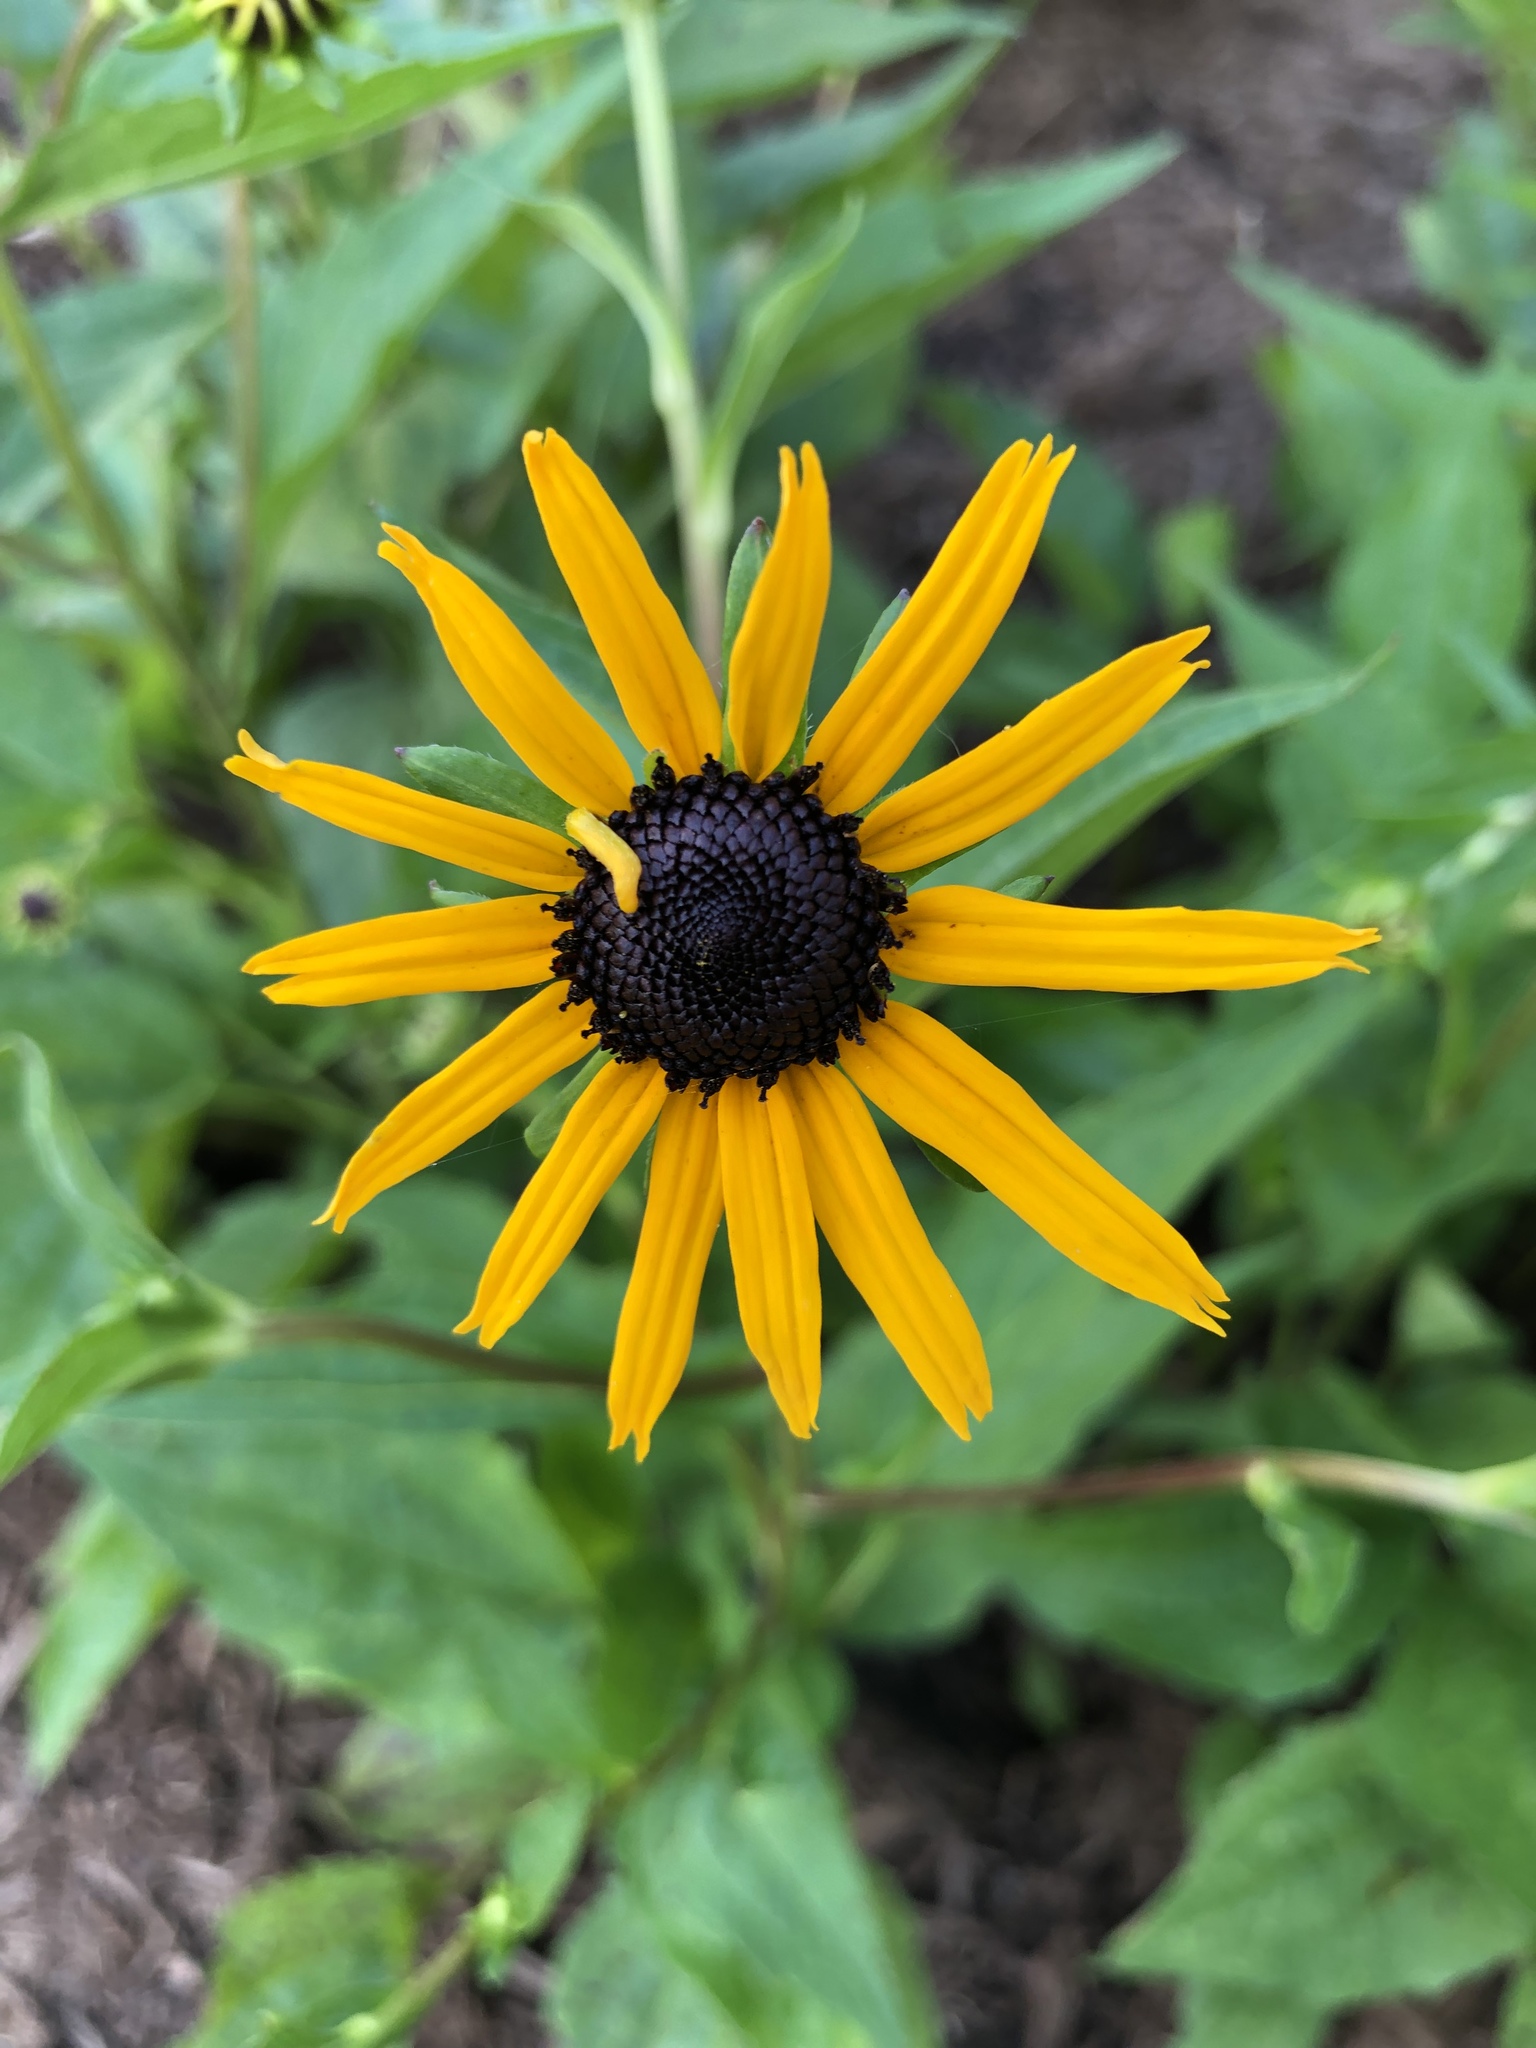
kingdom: Plantae
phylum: Tracheophyta
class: Magnoliopsida
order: Asterales
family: Asteraceae
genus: Rudbeckia
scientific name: Rudbeckia hirta
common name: Black-eyed-susan
